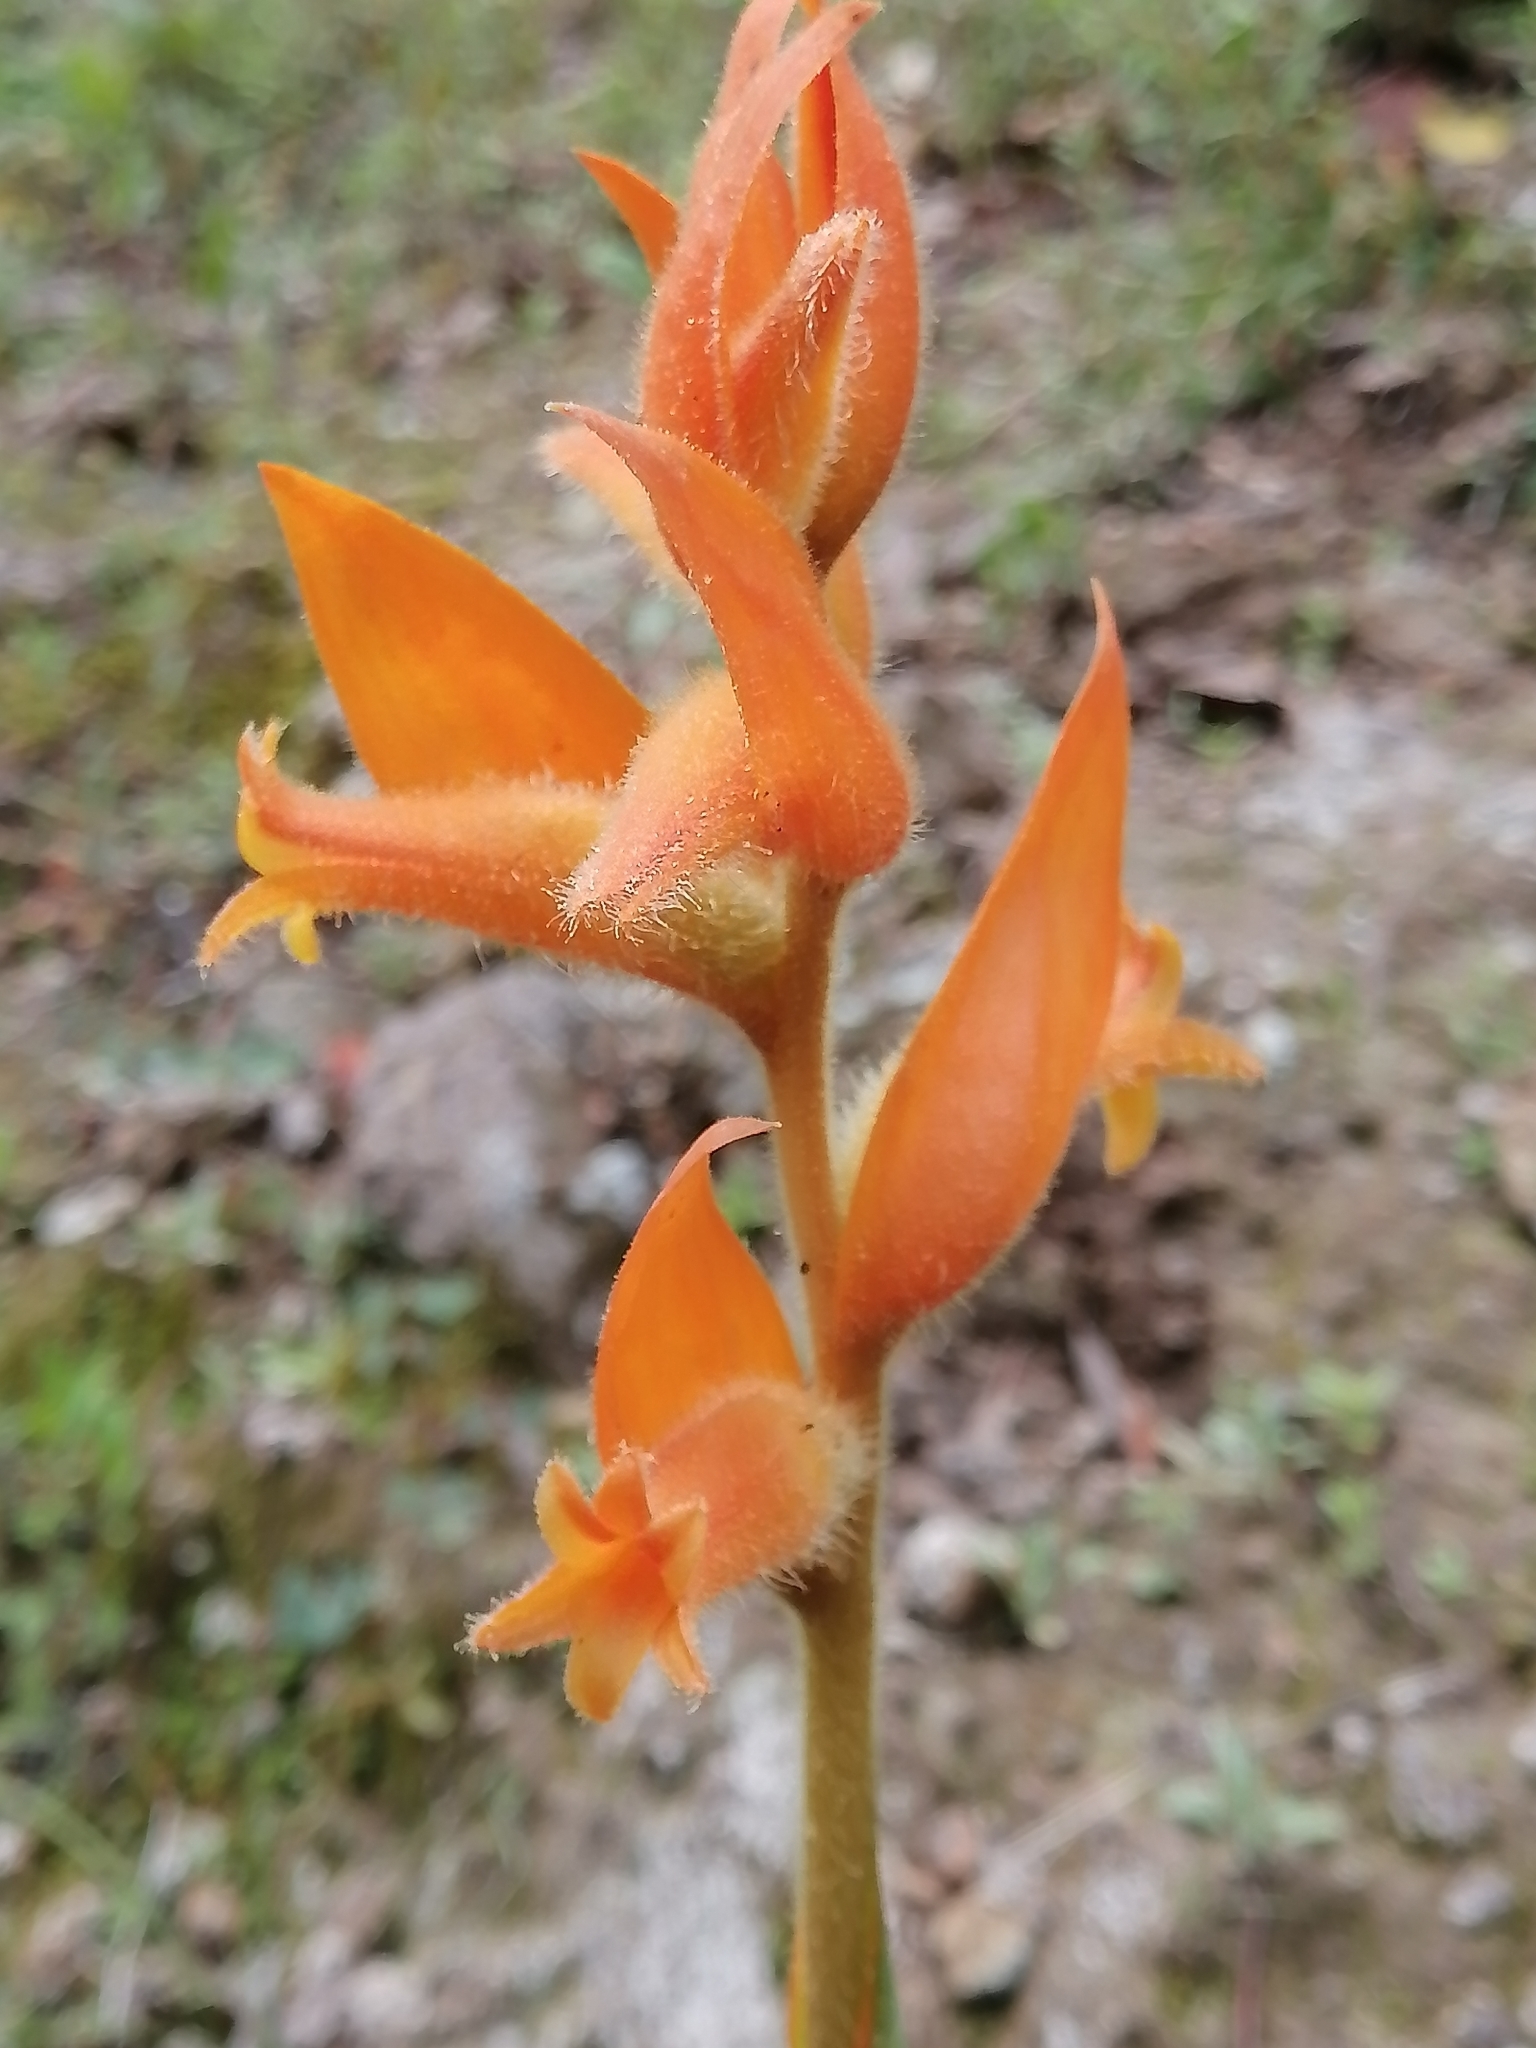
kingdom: Plantae
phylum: Tracheophyta
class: Liliopsida
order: Asparagales
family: Orchidaceae
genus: Dichromanthus
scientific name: Dichromanthus aurantiacus
